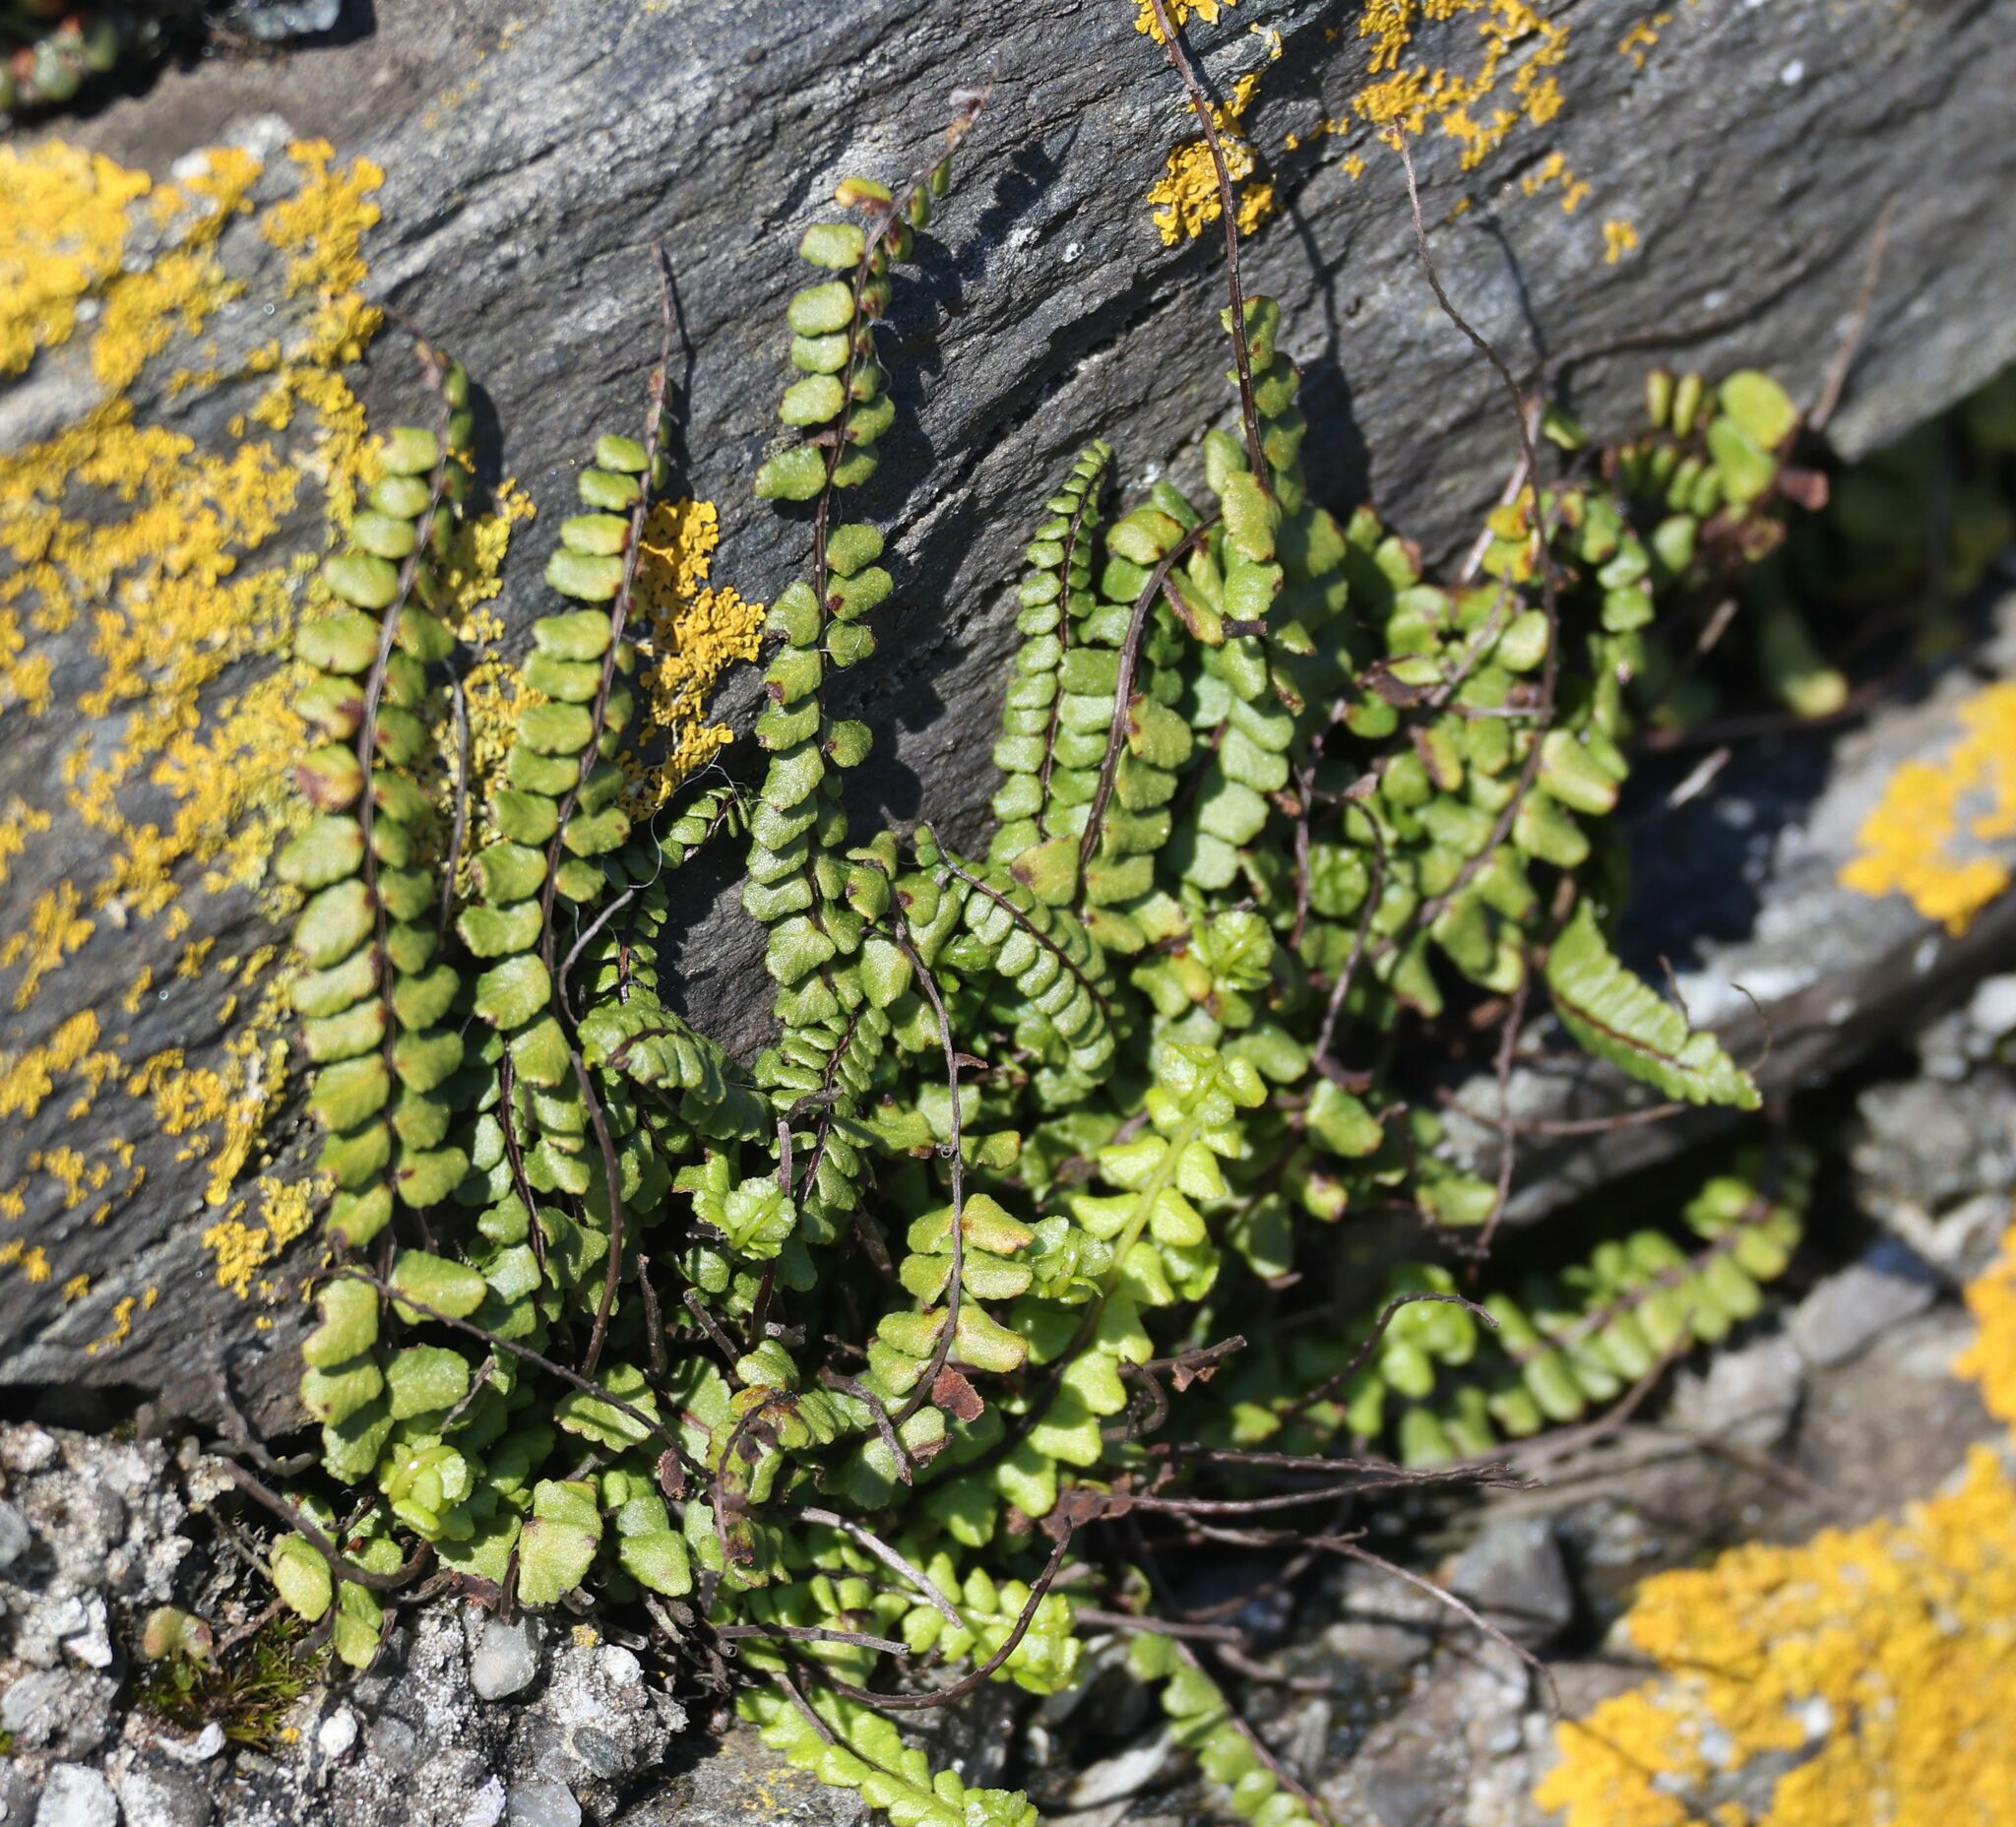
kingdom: Plantae
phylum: Tracheophyta
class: Polypodiopsida
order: Polypodiales
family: Aspleniaceae
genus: Asplenium
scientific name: Asplenium trichomanes
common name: Maidenhair spleenwort
